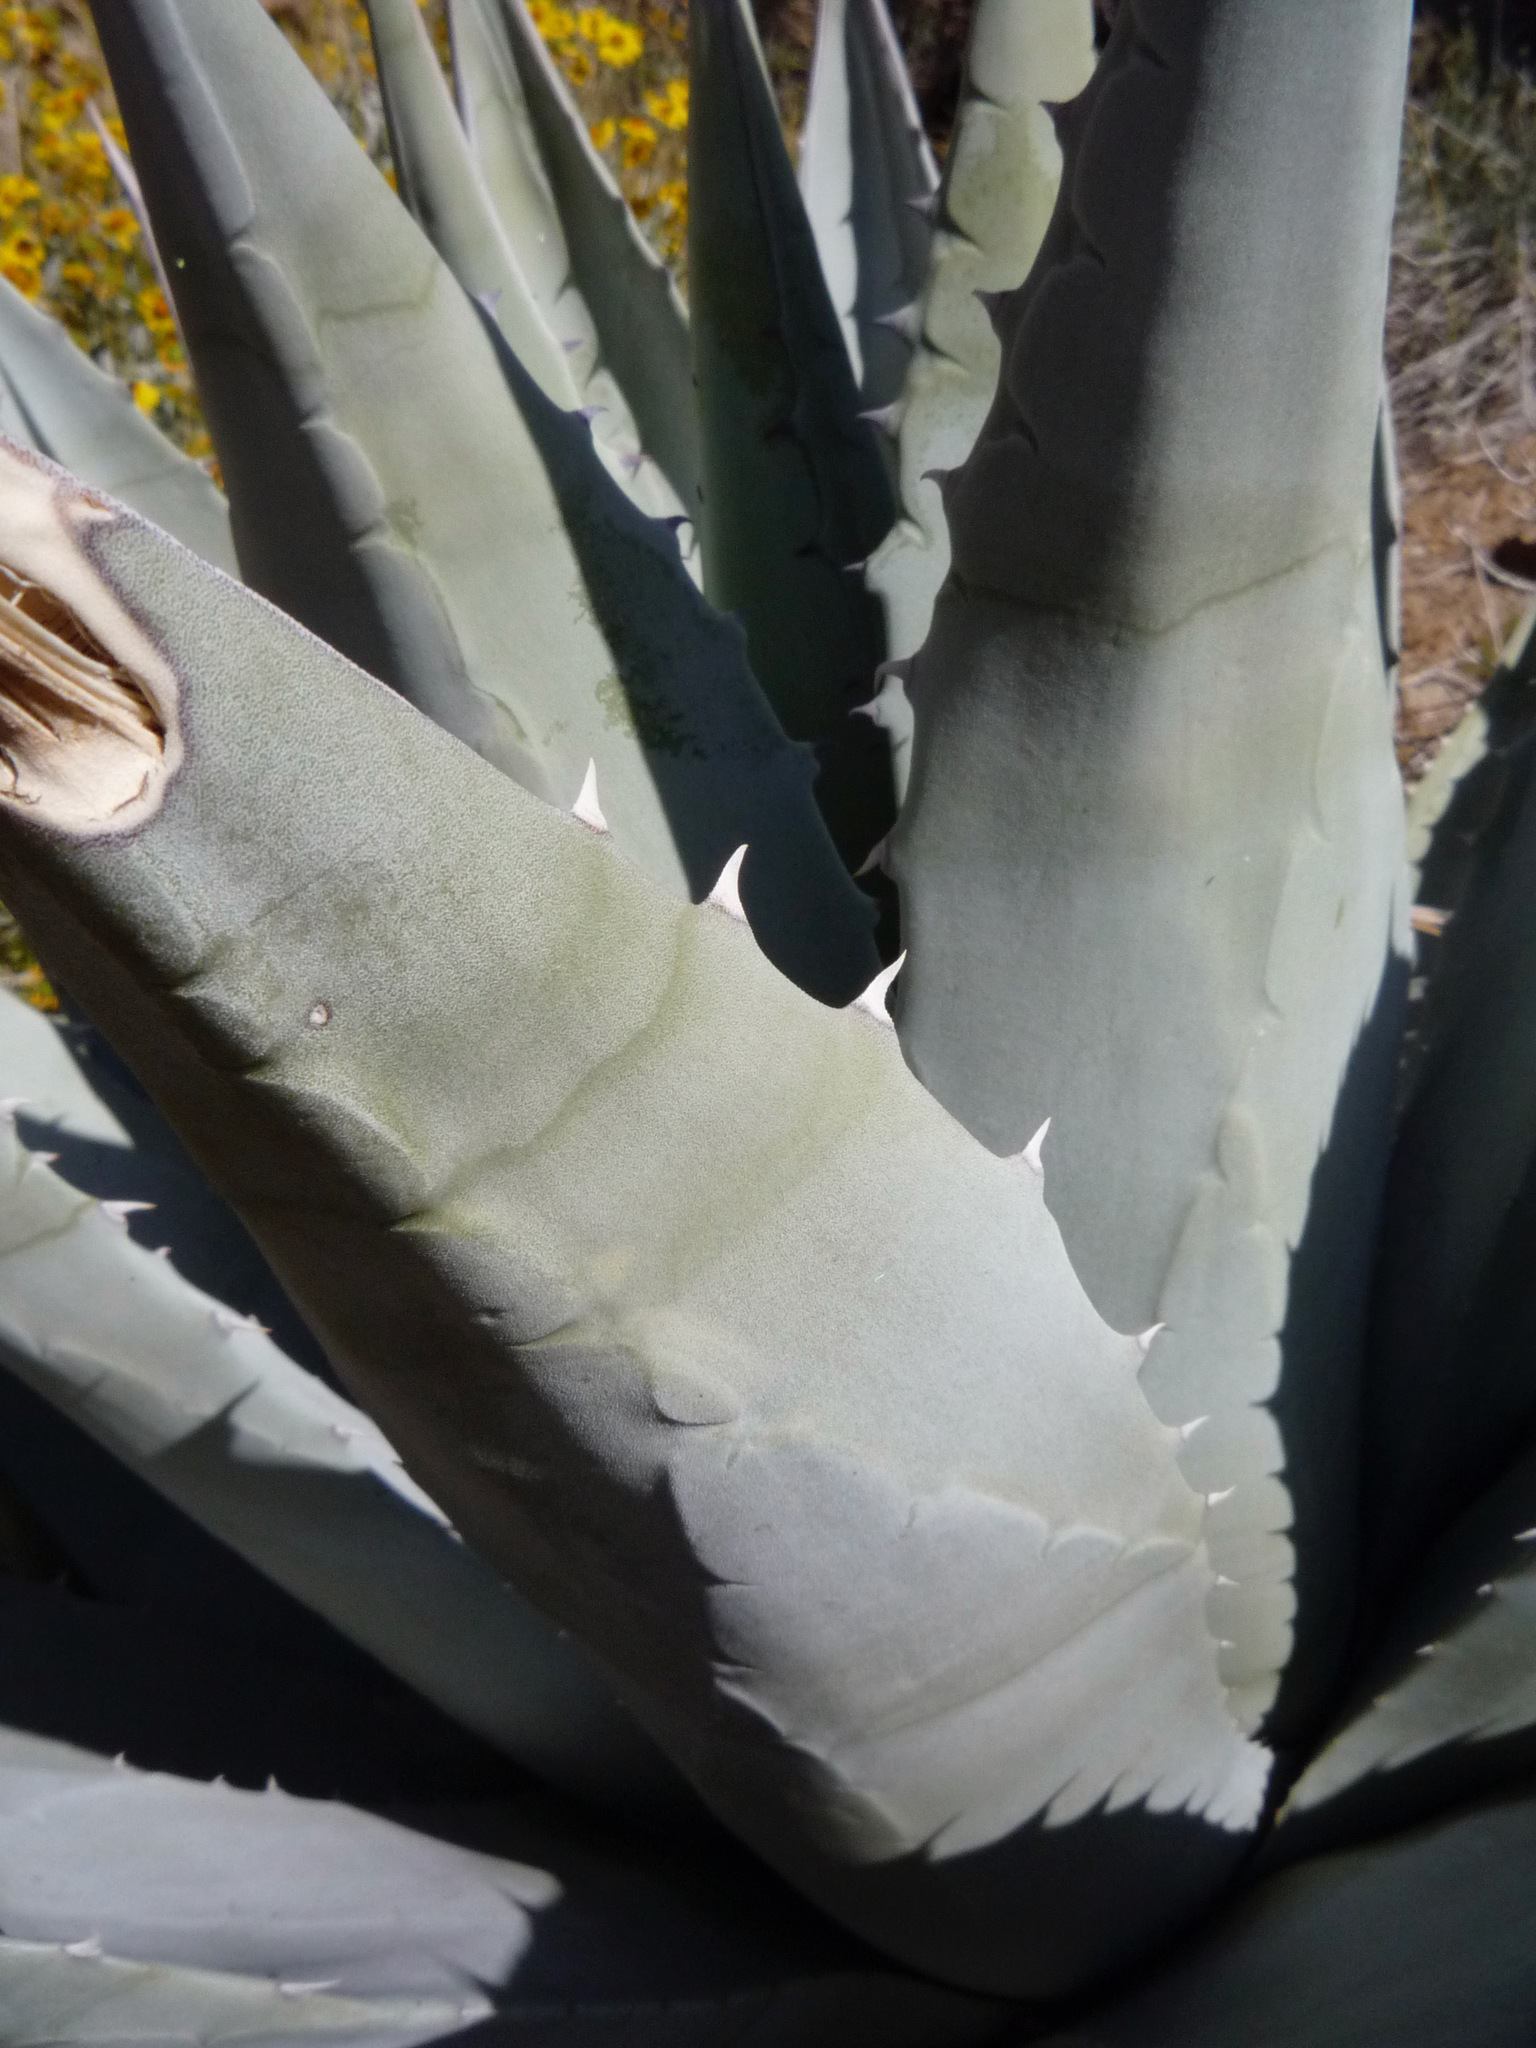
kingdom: Plantae
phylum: Tracheophyta
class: Liliopsida
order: Asparagales
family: Asparagaceae
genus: Agave
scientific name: Agave deserti
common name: Desert agave
